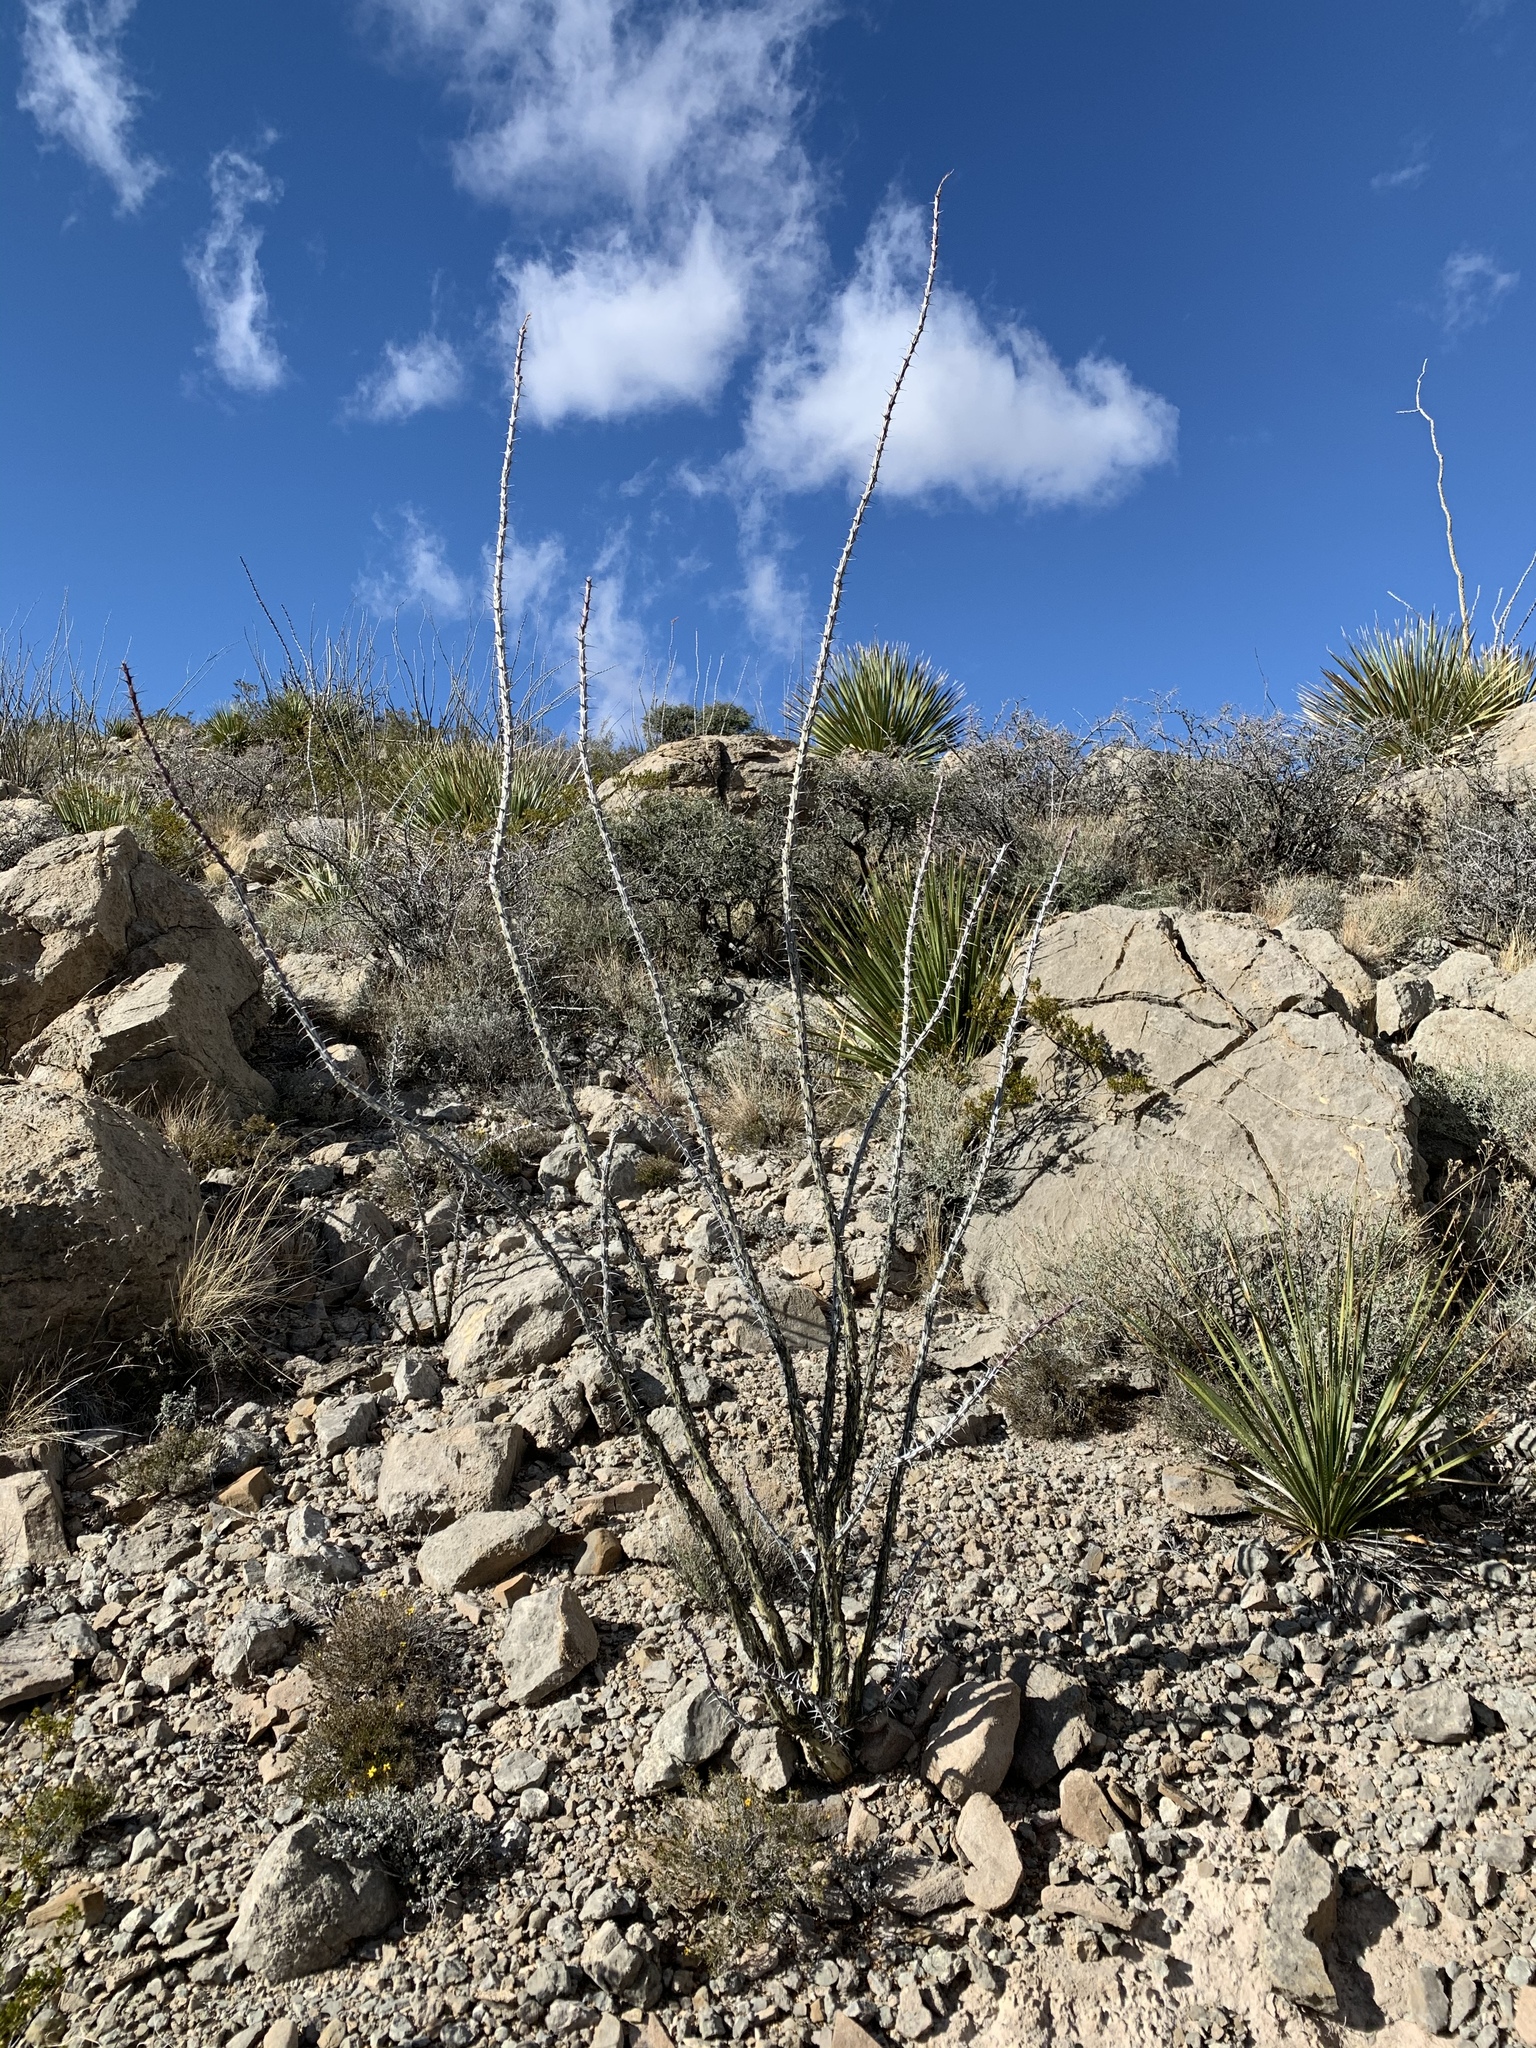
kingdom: Plantae
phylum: Tracheophyta
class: Magnoliopsida
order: Ericales
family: Fouquieriaceae
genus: Fouquieria
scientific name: Fouquieria splendens
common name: Vine-cactus
